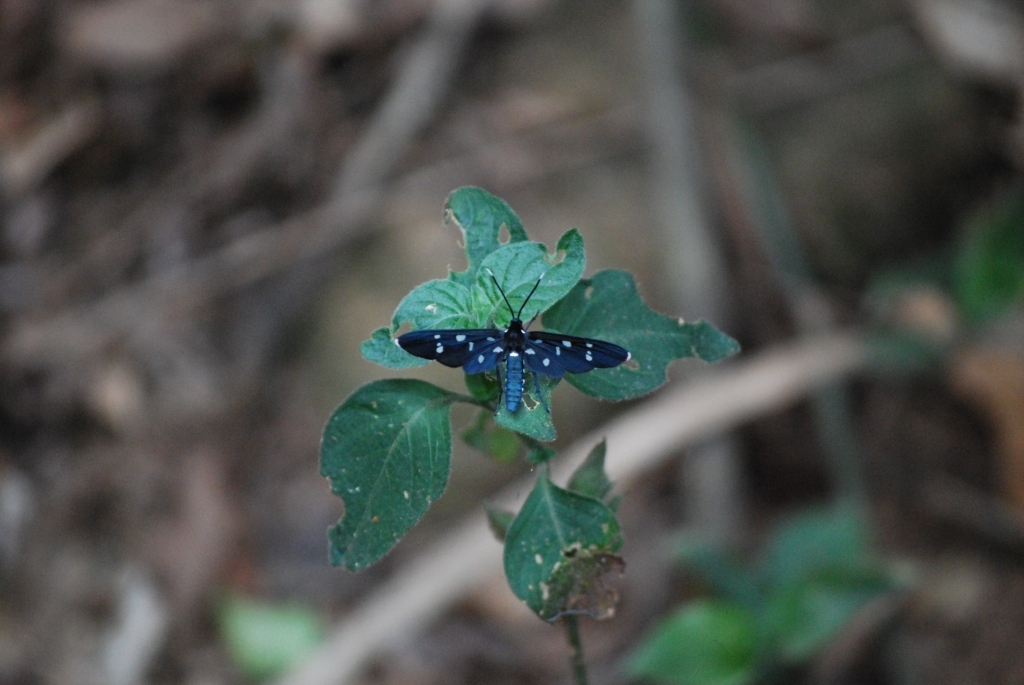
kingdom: Animalia
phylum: Arthropoda
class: Insecta
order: Lepidoptera
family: Erebidae
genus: Ceryx
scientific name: Ceryx longipes
